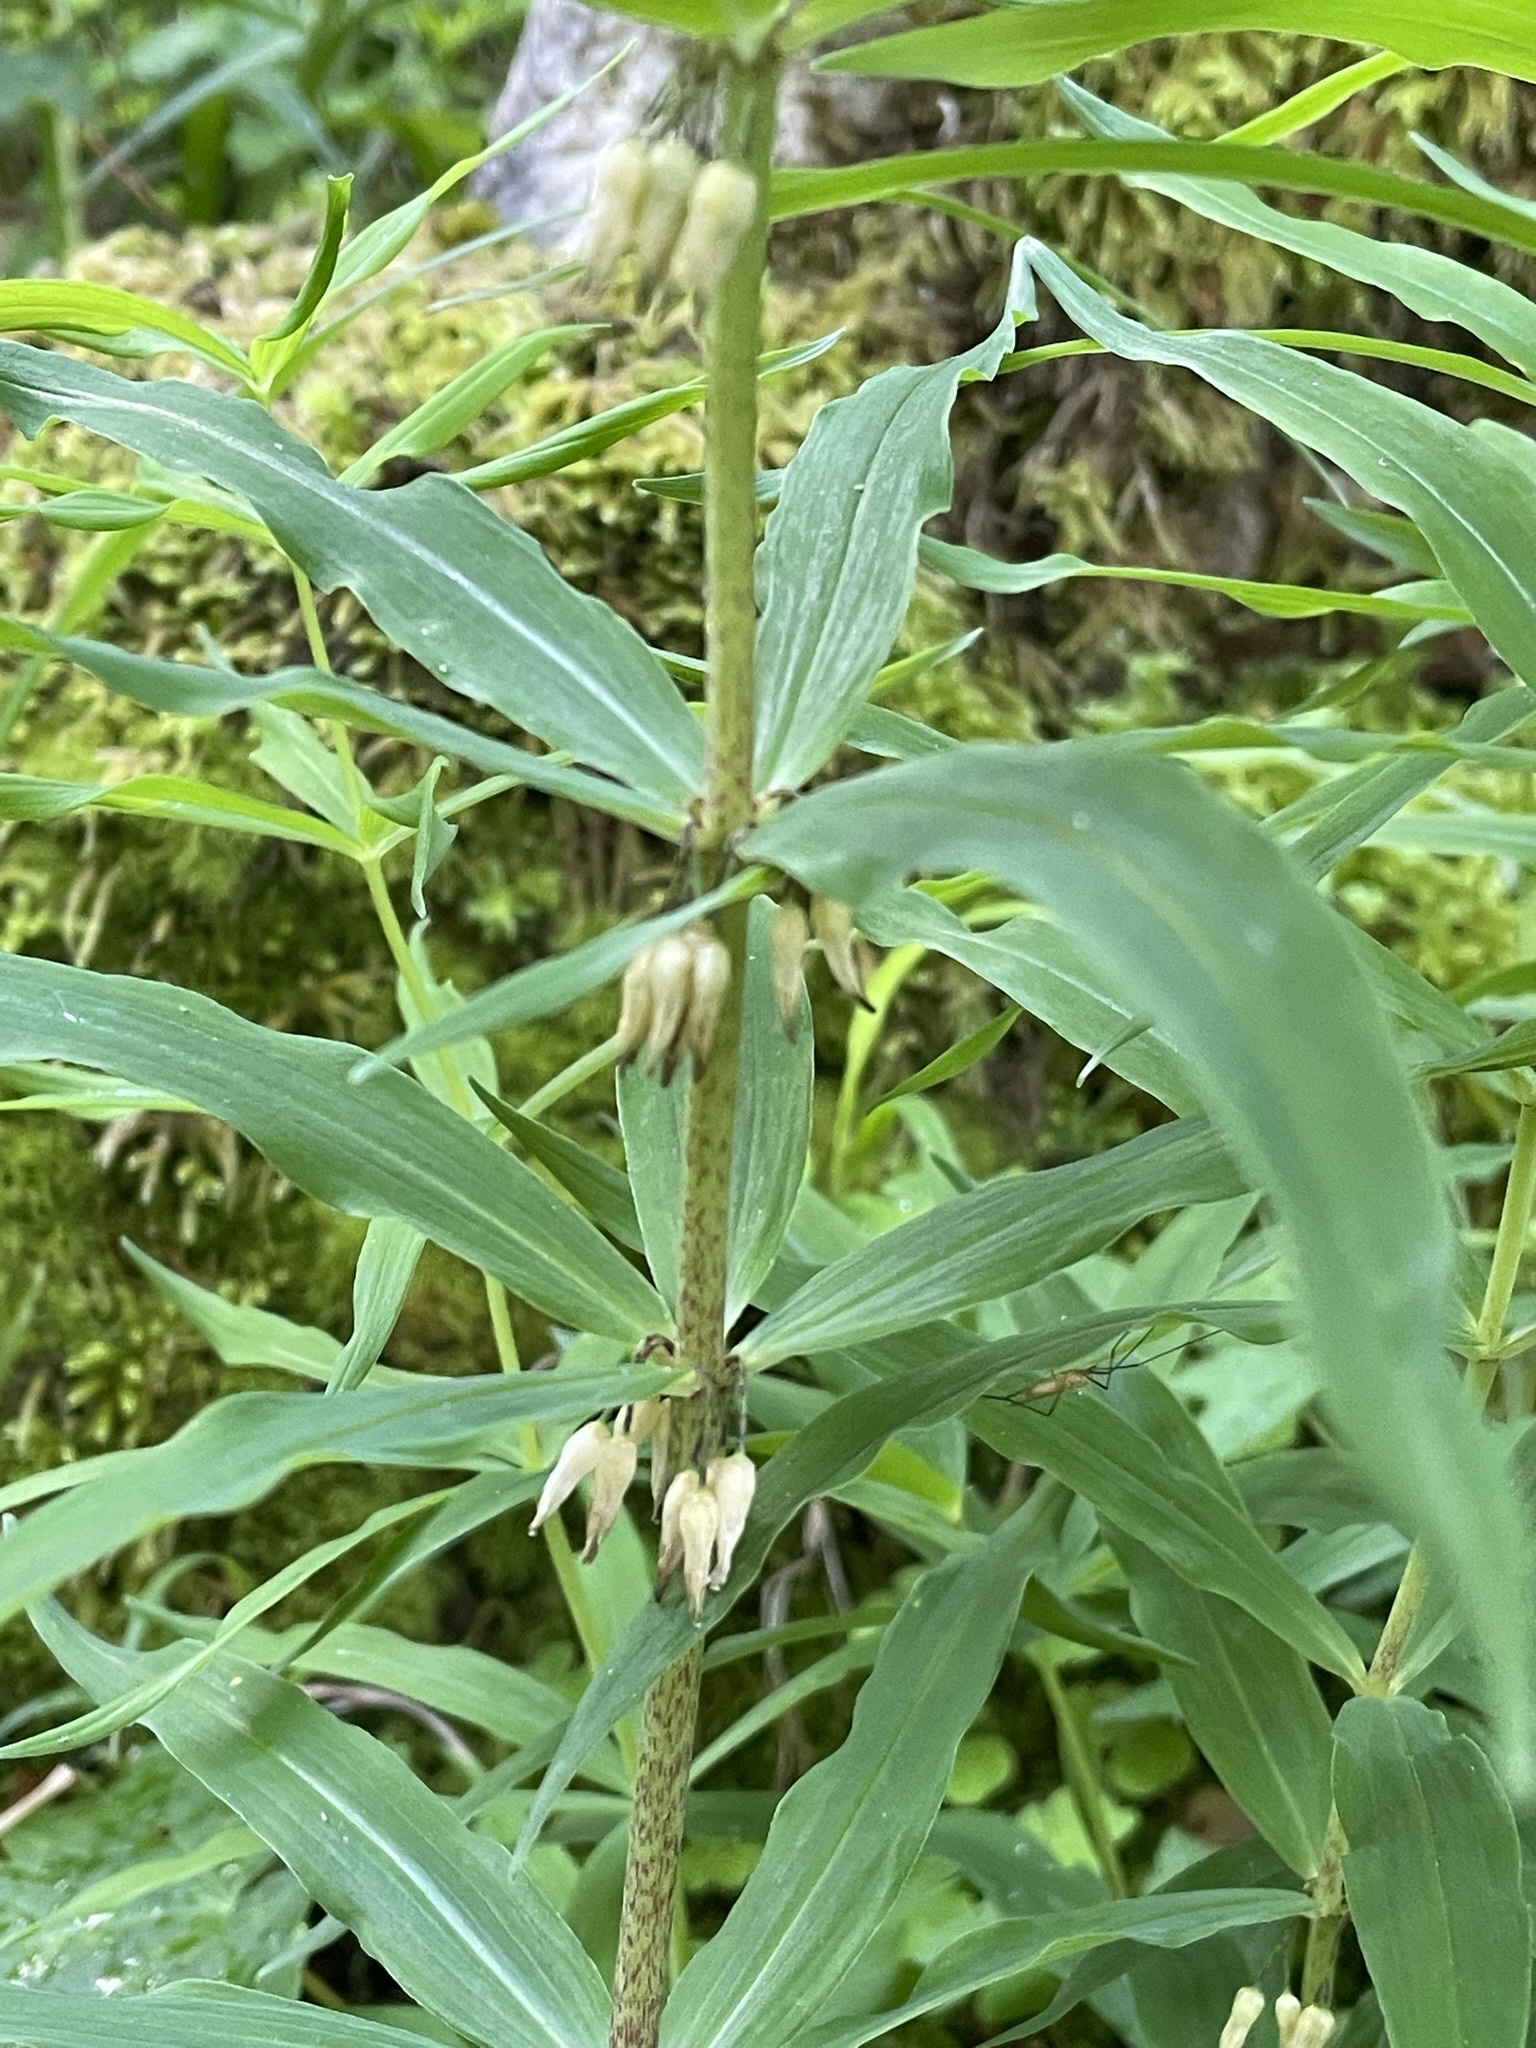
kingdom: Plantae
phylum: Tracheophyta
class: Liliopsida
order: Asparagales
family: Asparagaceae
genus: Polygonatum
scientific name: Polygonatum verticillatum
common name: Whorled solomon's-seal
